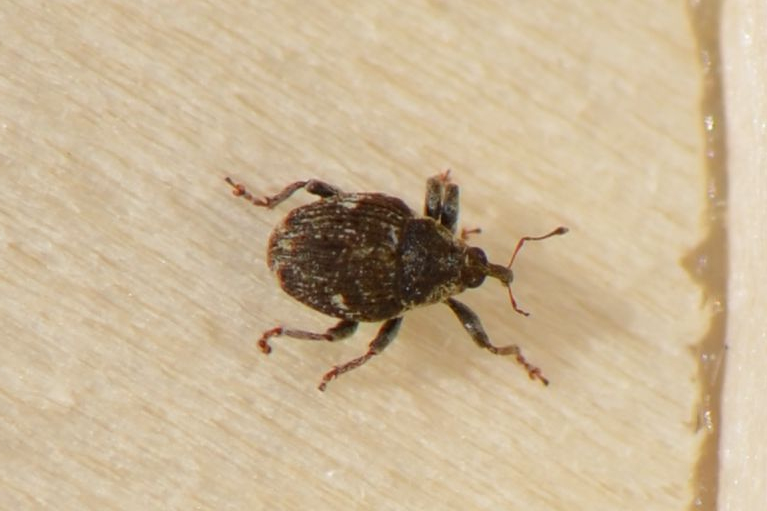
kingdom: Animalia
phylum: Arthropoda
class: Insecta
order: Coleoptera
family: Curculionidae
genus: Nedyus
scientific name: Nedyus quadrimaculatus
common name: Small nettle weevil
